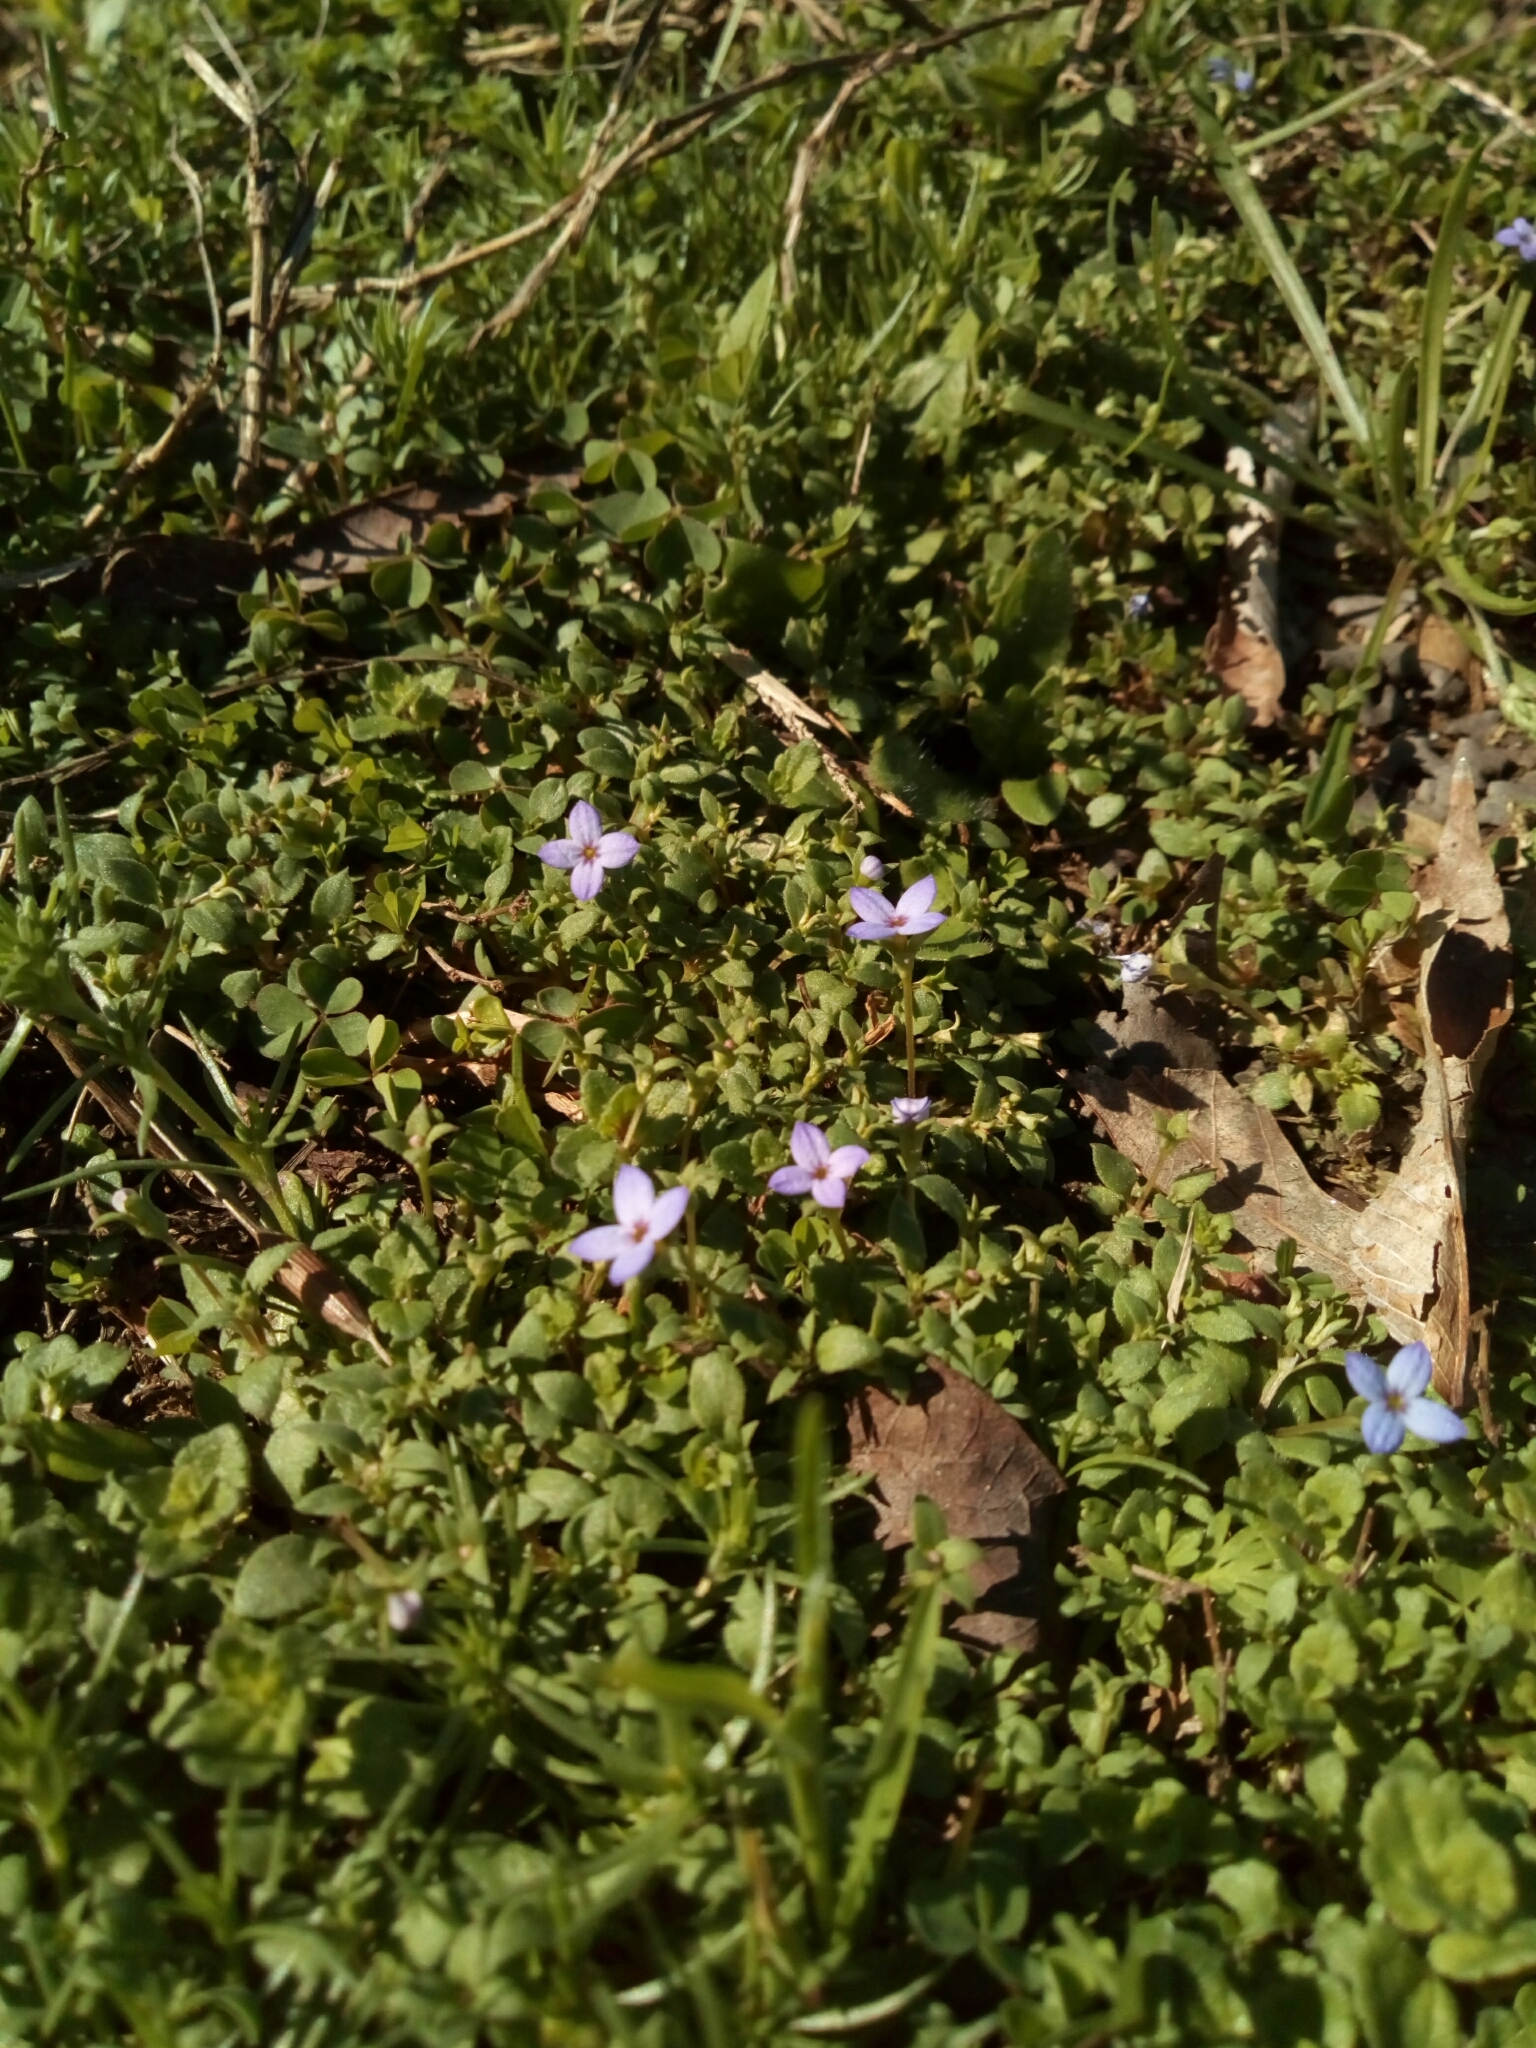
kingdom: Plantae
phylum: Tracheophyta
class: Magnoliopsida
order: Gentianales
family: Rubiaceae
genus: Houstonia
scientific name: Houstonia pusilla
